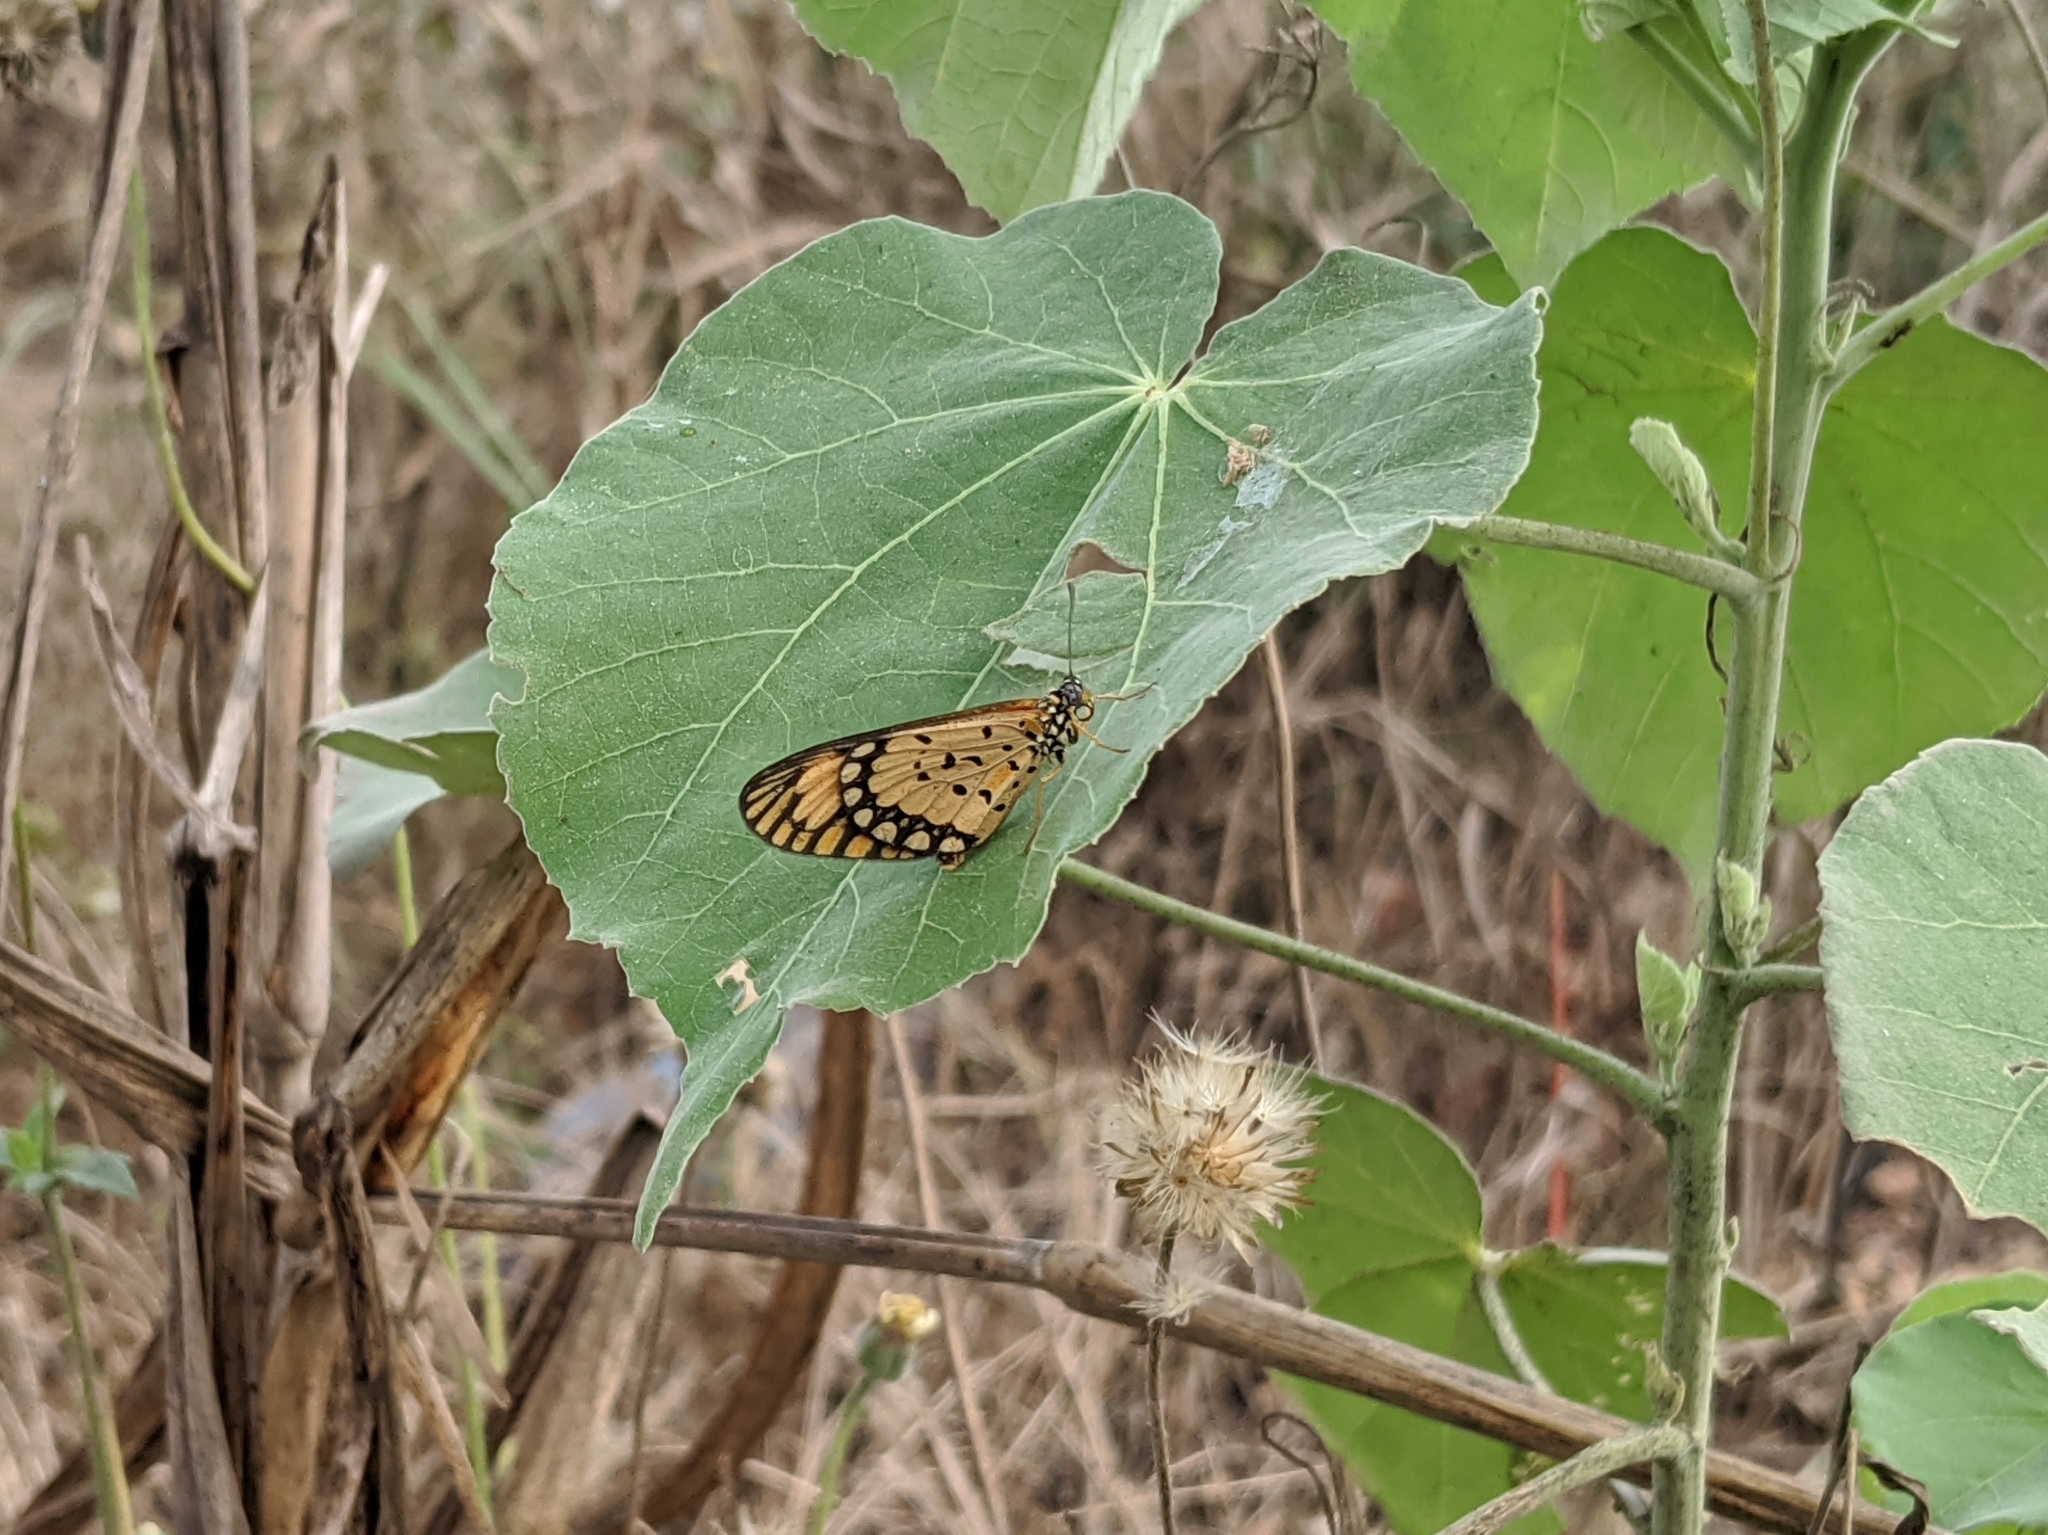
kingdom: Animalia
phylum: Arthropoda
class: Insecta
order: Lepidoptera
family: Nymphalidae
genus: Acraea
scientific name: Acraea Telchinia serena
